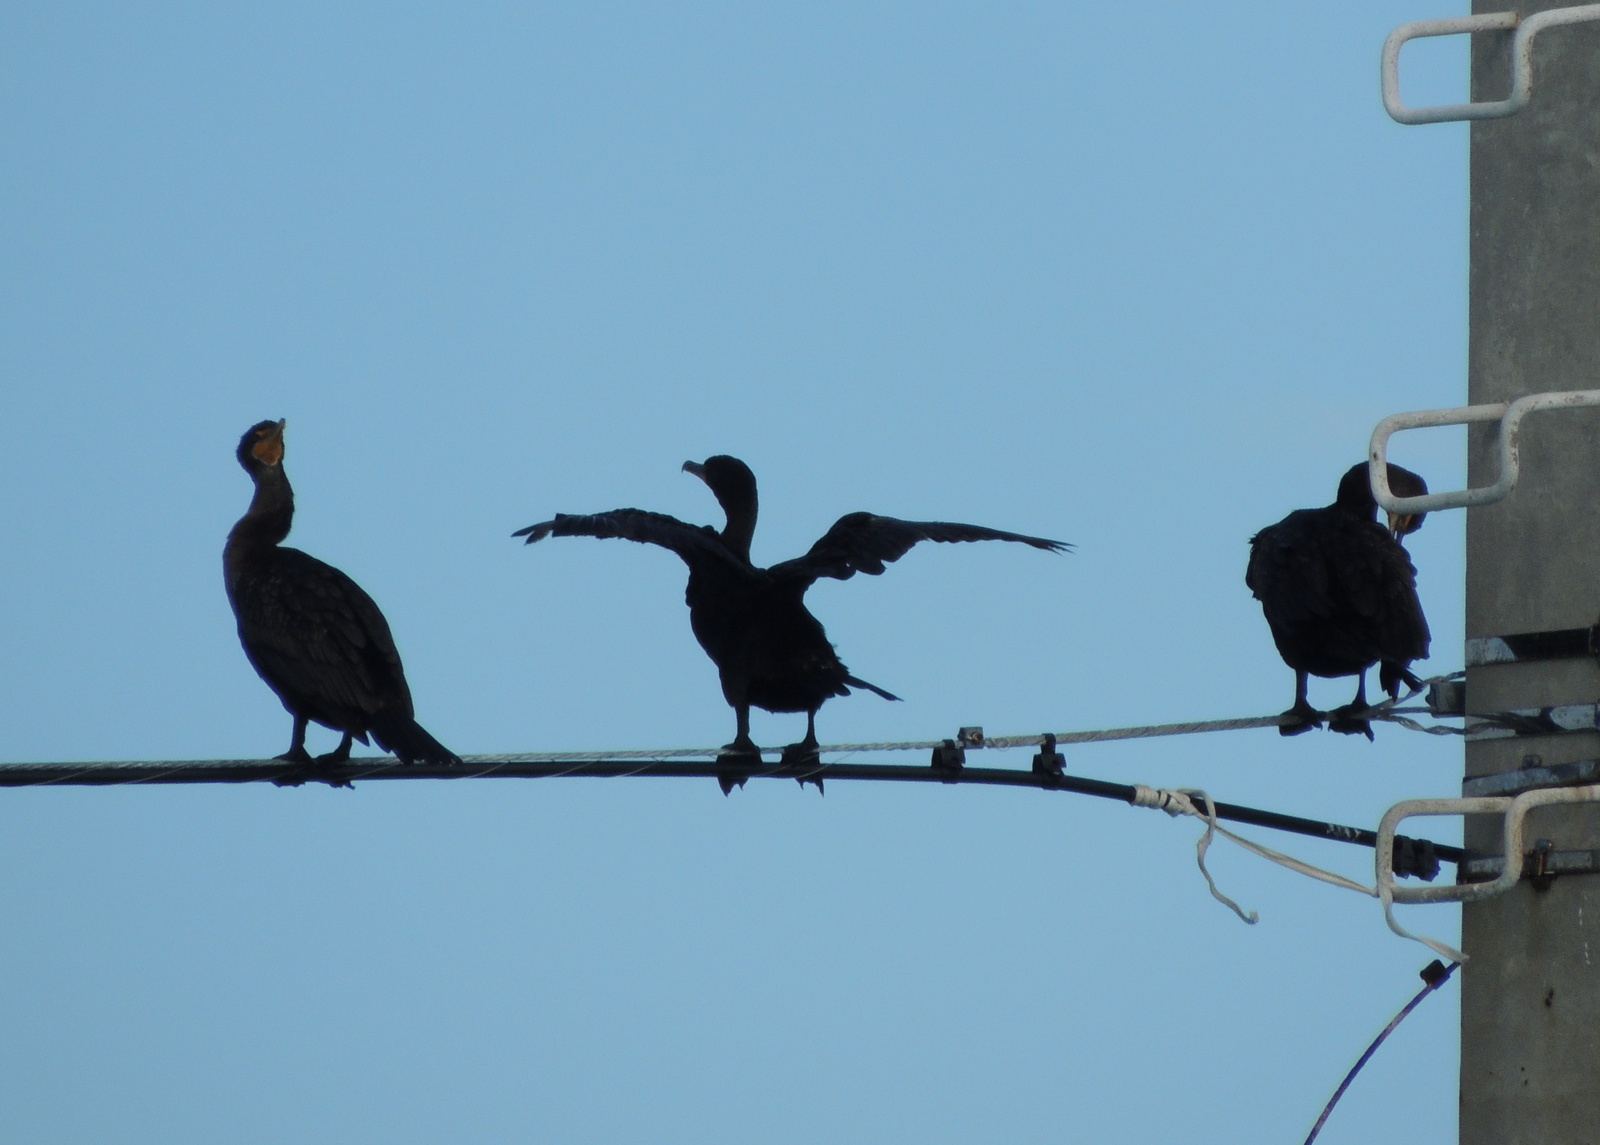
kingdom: Animalia
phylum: Chordata
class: Aves
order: Suliformes
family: Phalacrocoracidae
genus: Phalacrocorax
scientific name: Phalacrocorax auritus
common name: Double-crested cormorant
